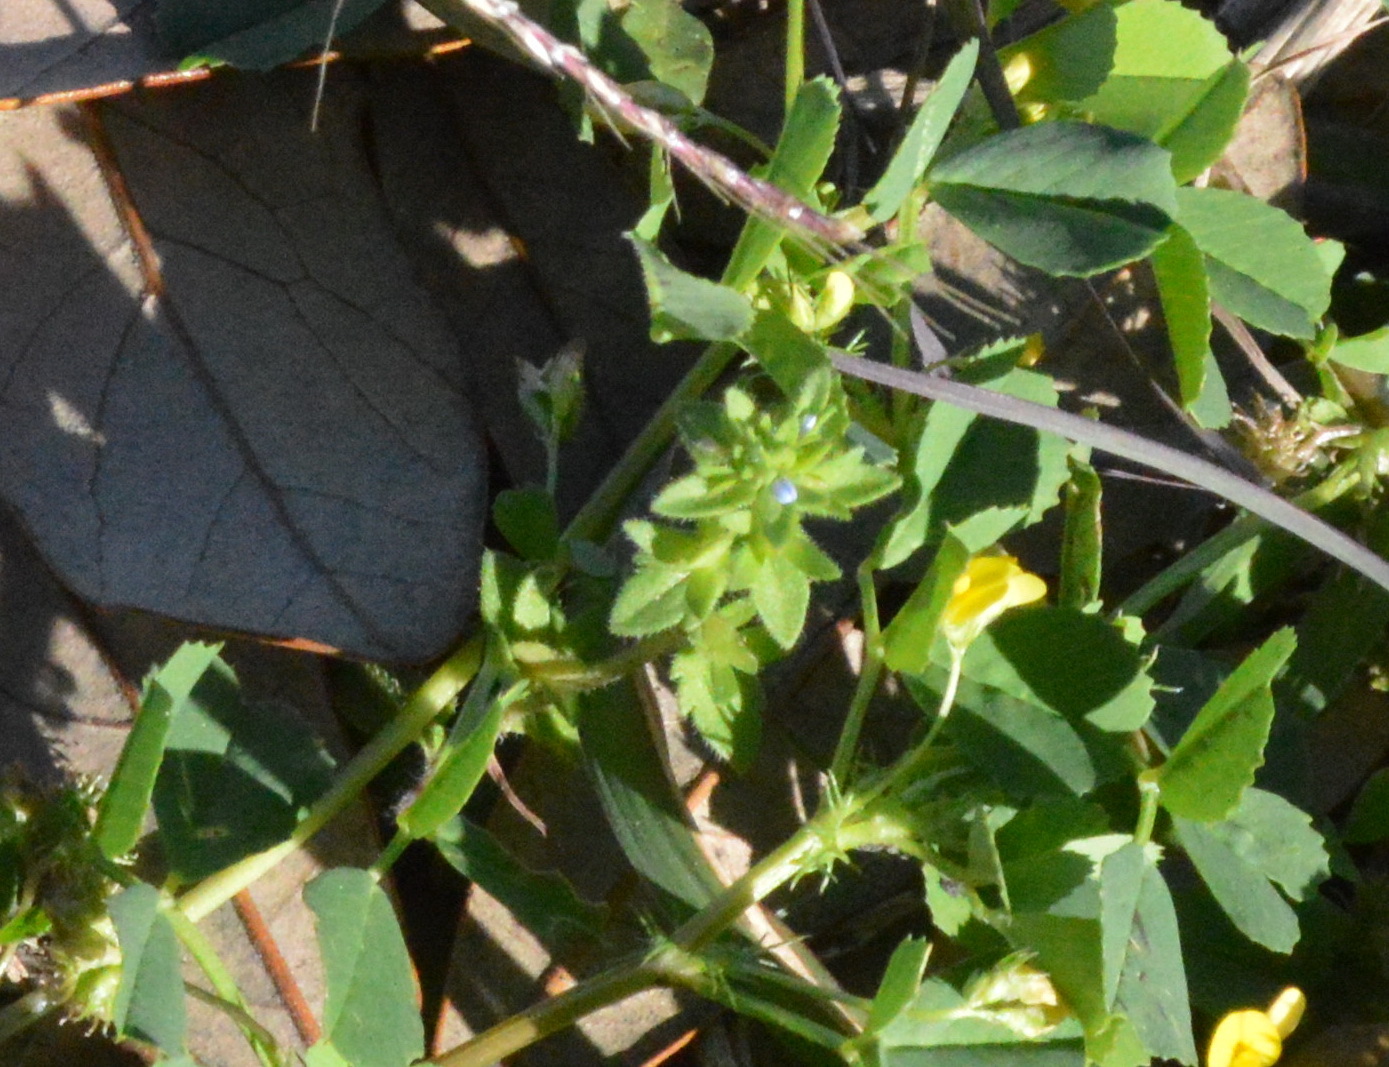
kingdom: Plantae
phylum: Tracheophyta
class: Magnoliopsida
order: Fabales
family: Fabaceae
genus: Medicago
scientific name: Medicago polymorpha
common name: Burclover
